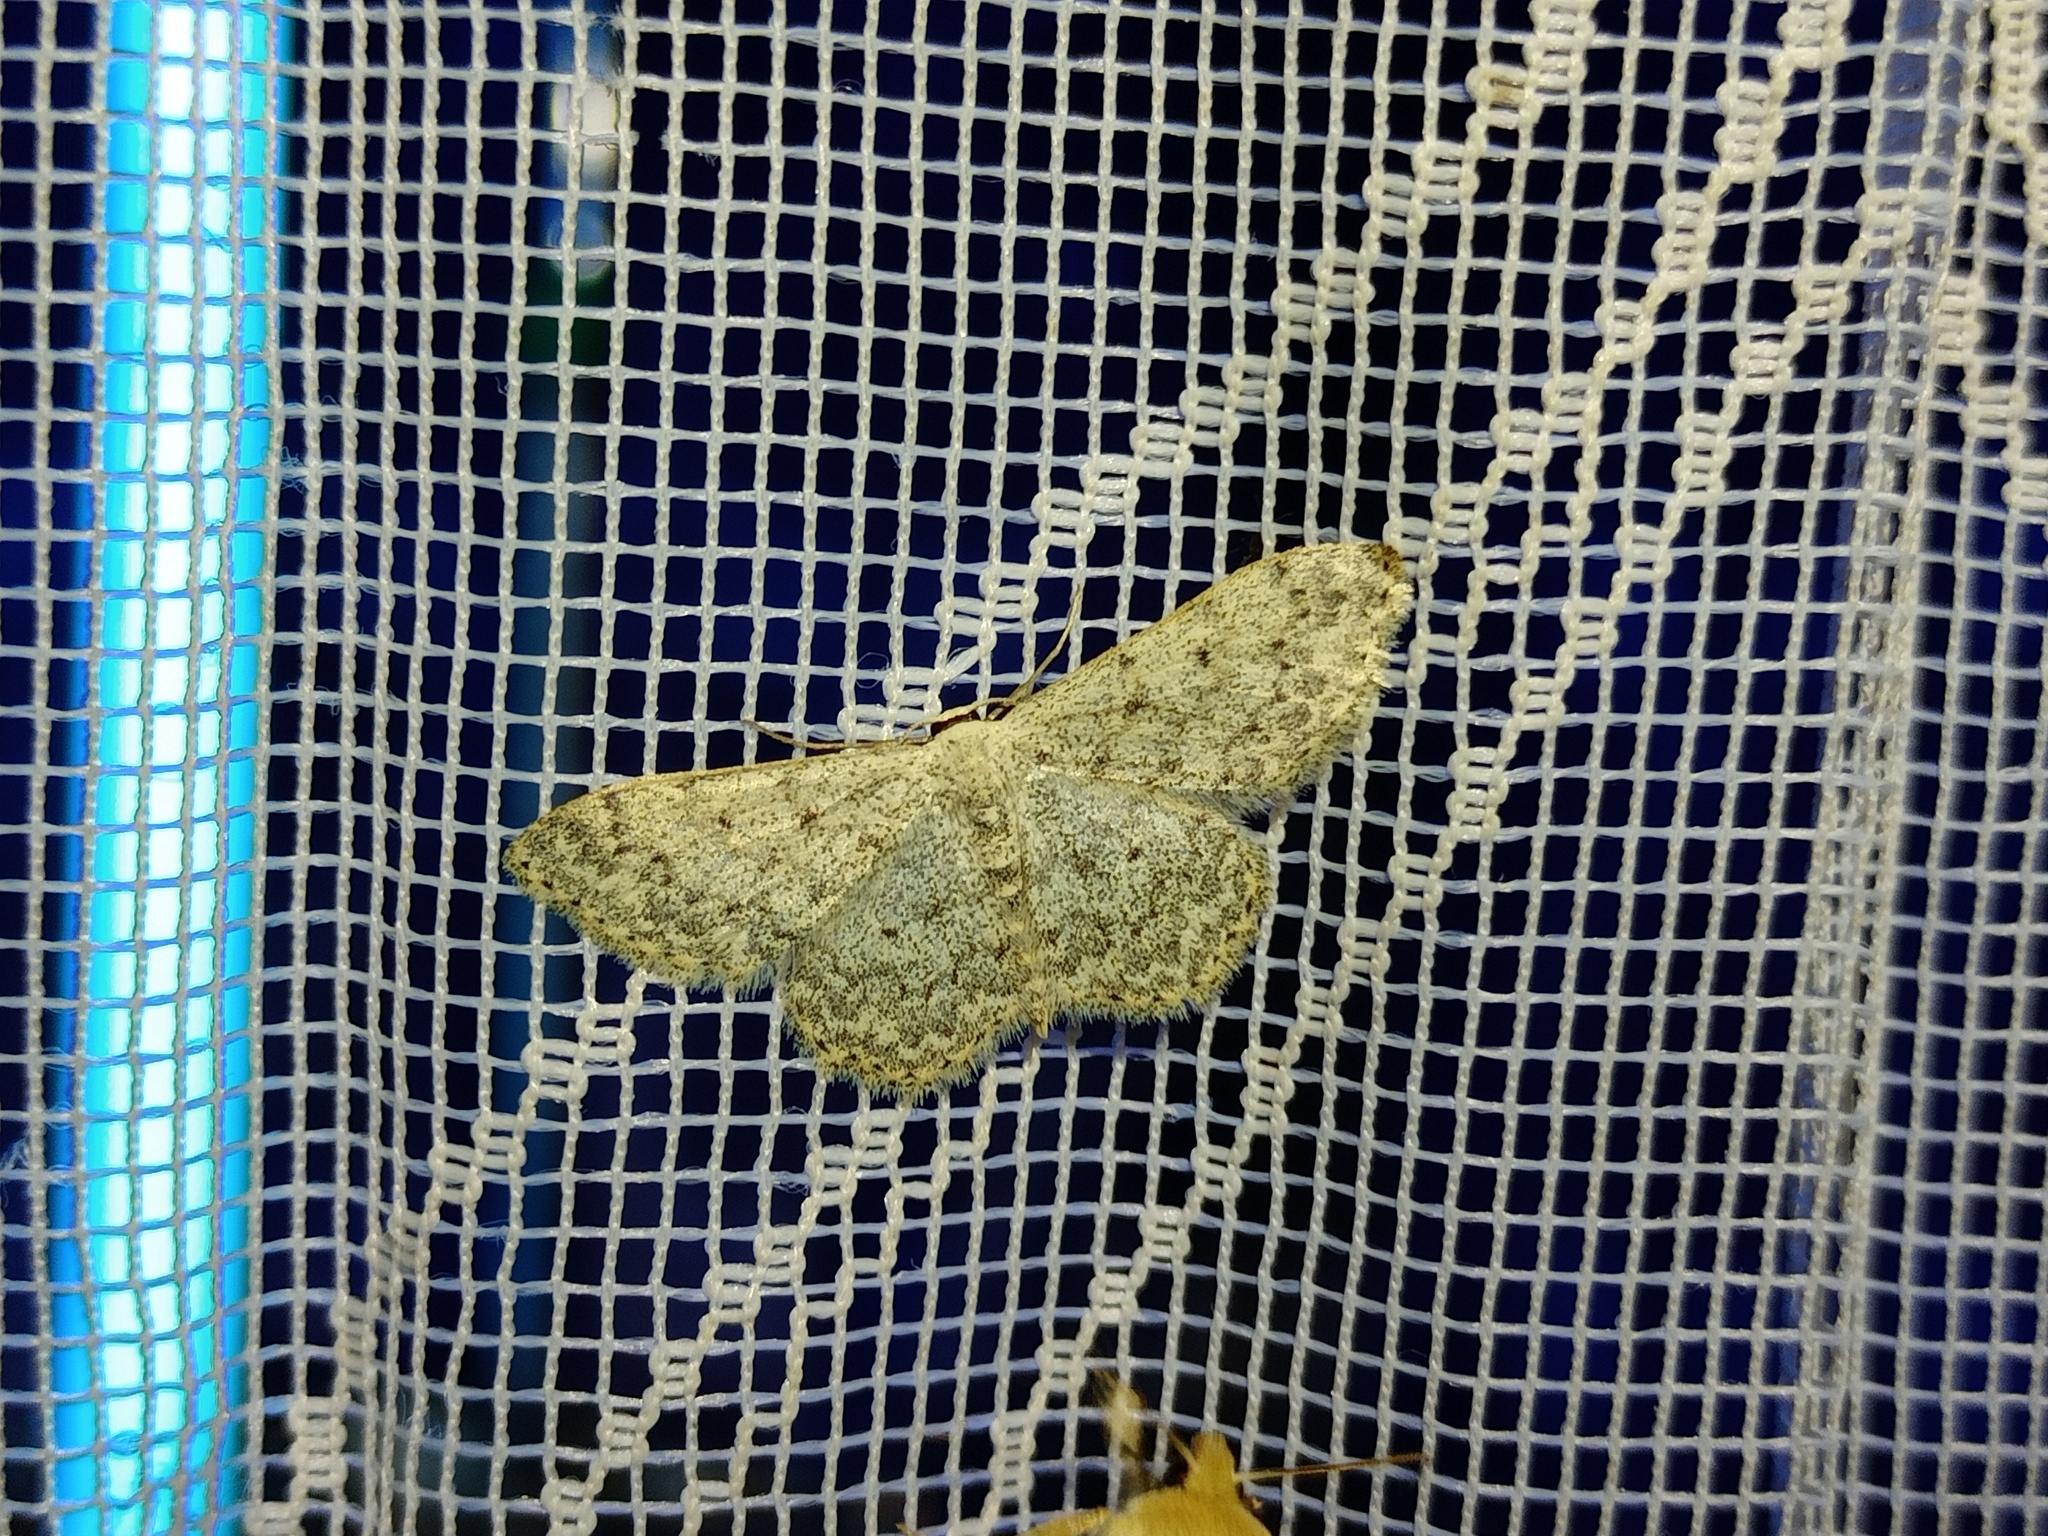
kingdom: Animalia
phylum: Arthropoda
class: Insecta
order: Lepidoptera
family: Geometridae
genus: Scopula
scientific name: Scopula marginepunctata
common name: Mullein wave
